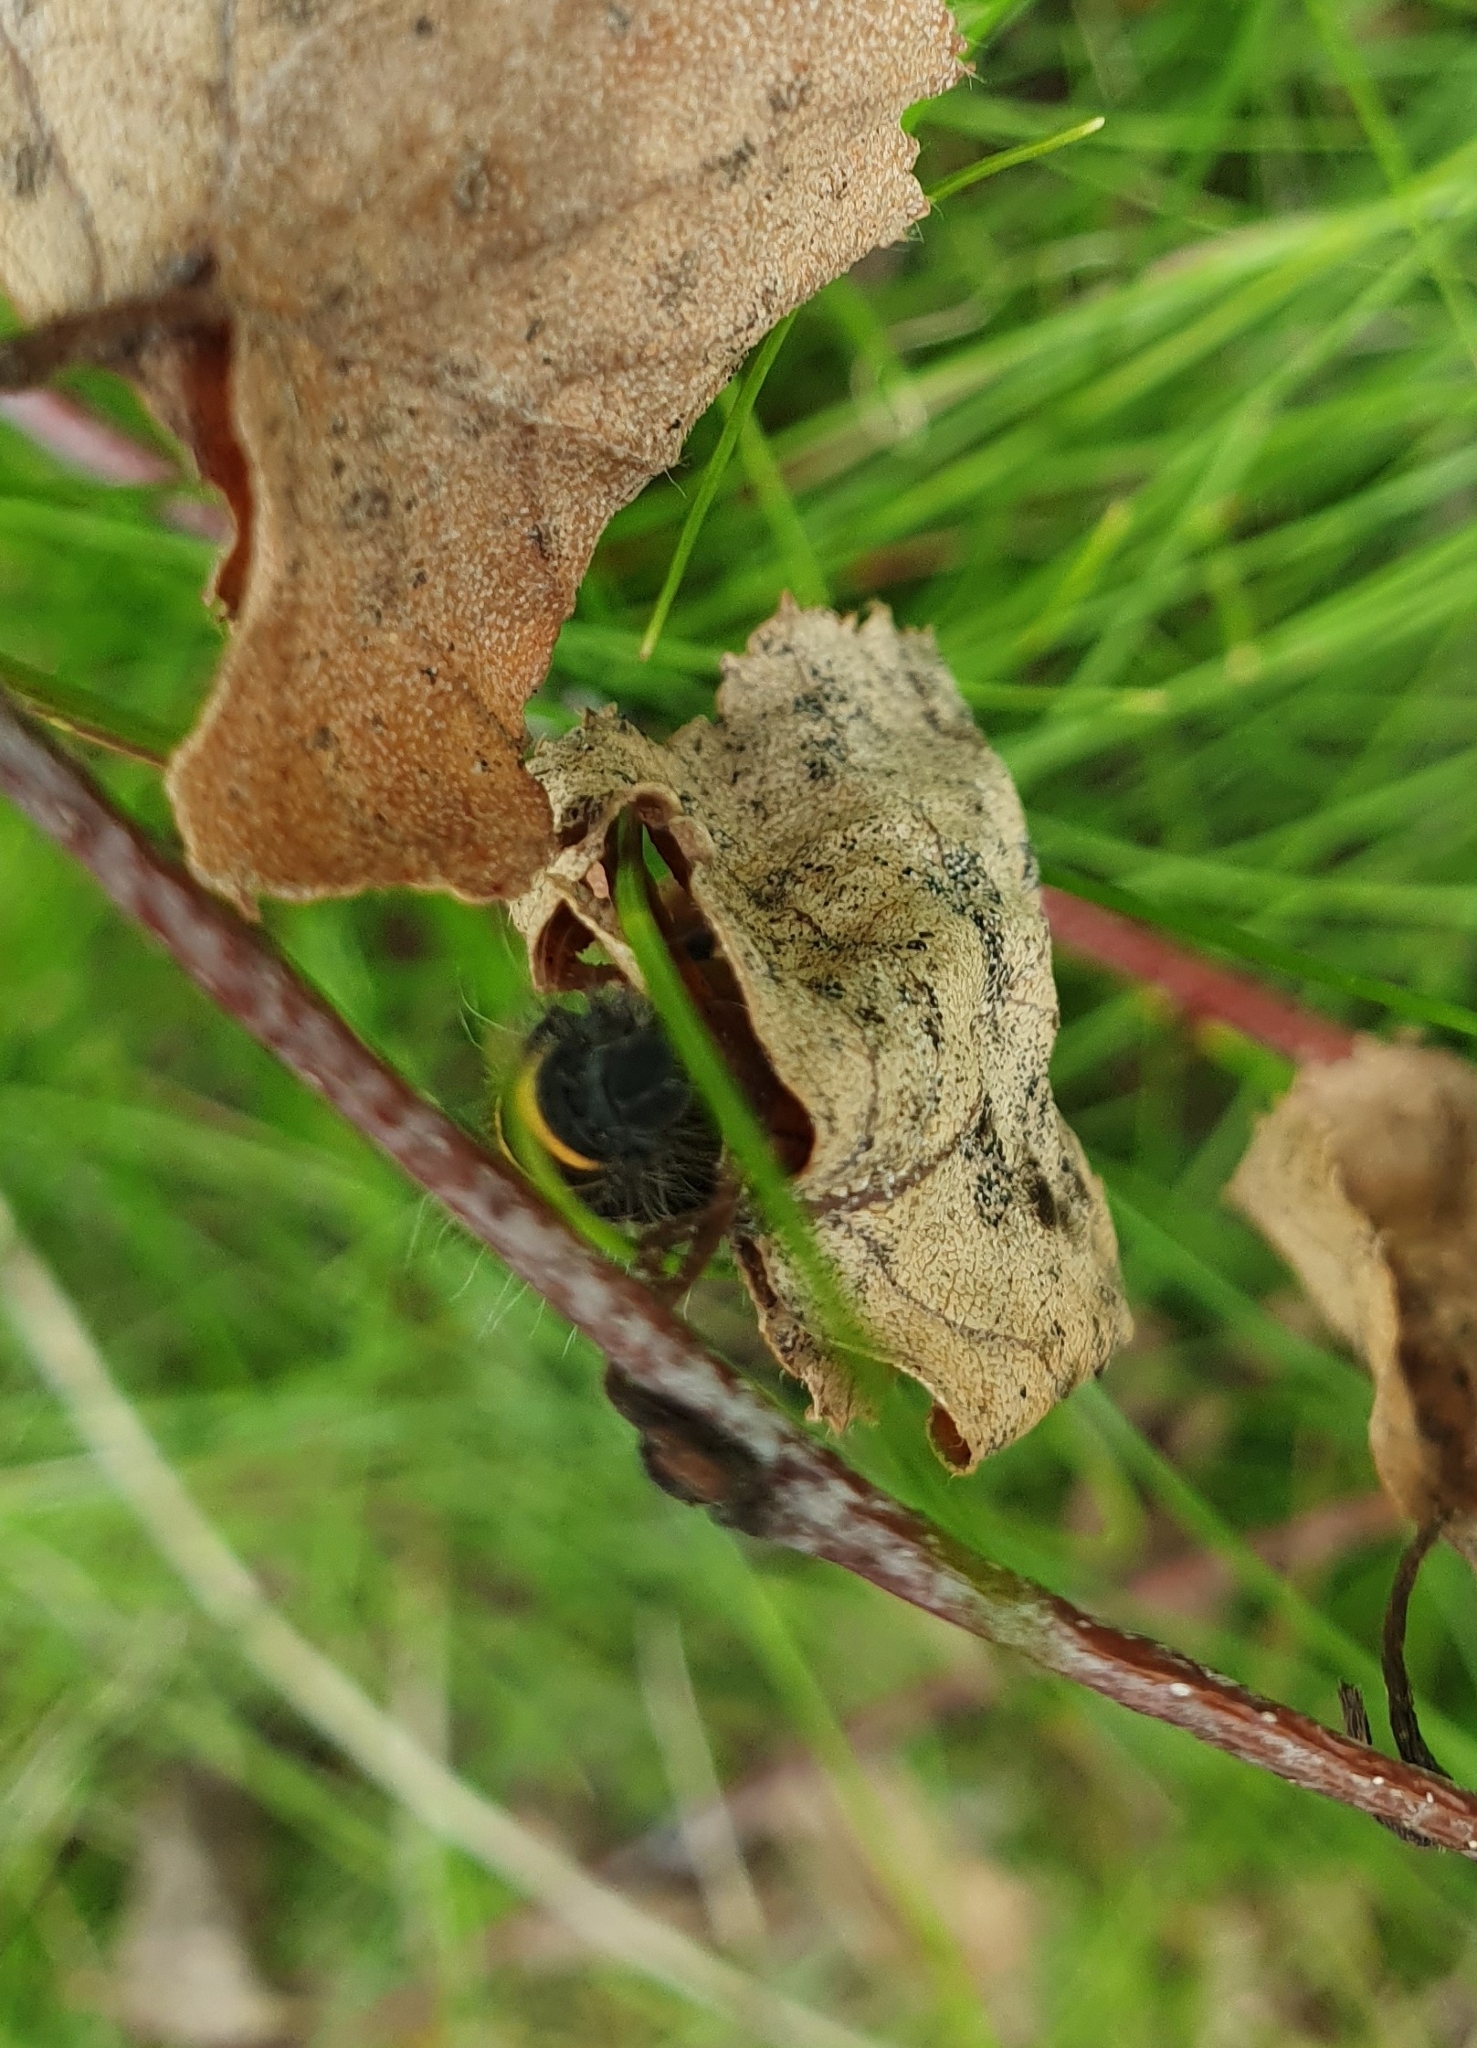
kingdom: Animalia
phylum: Arthropoda
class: Insecta
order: Lepidoptera
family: Lasiocampidae
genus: Macrothylacia
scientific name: Macrothylacia rubi
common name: Fox moth
